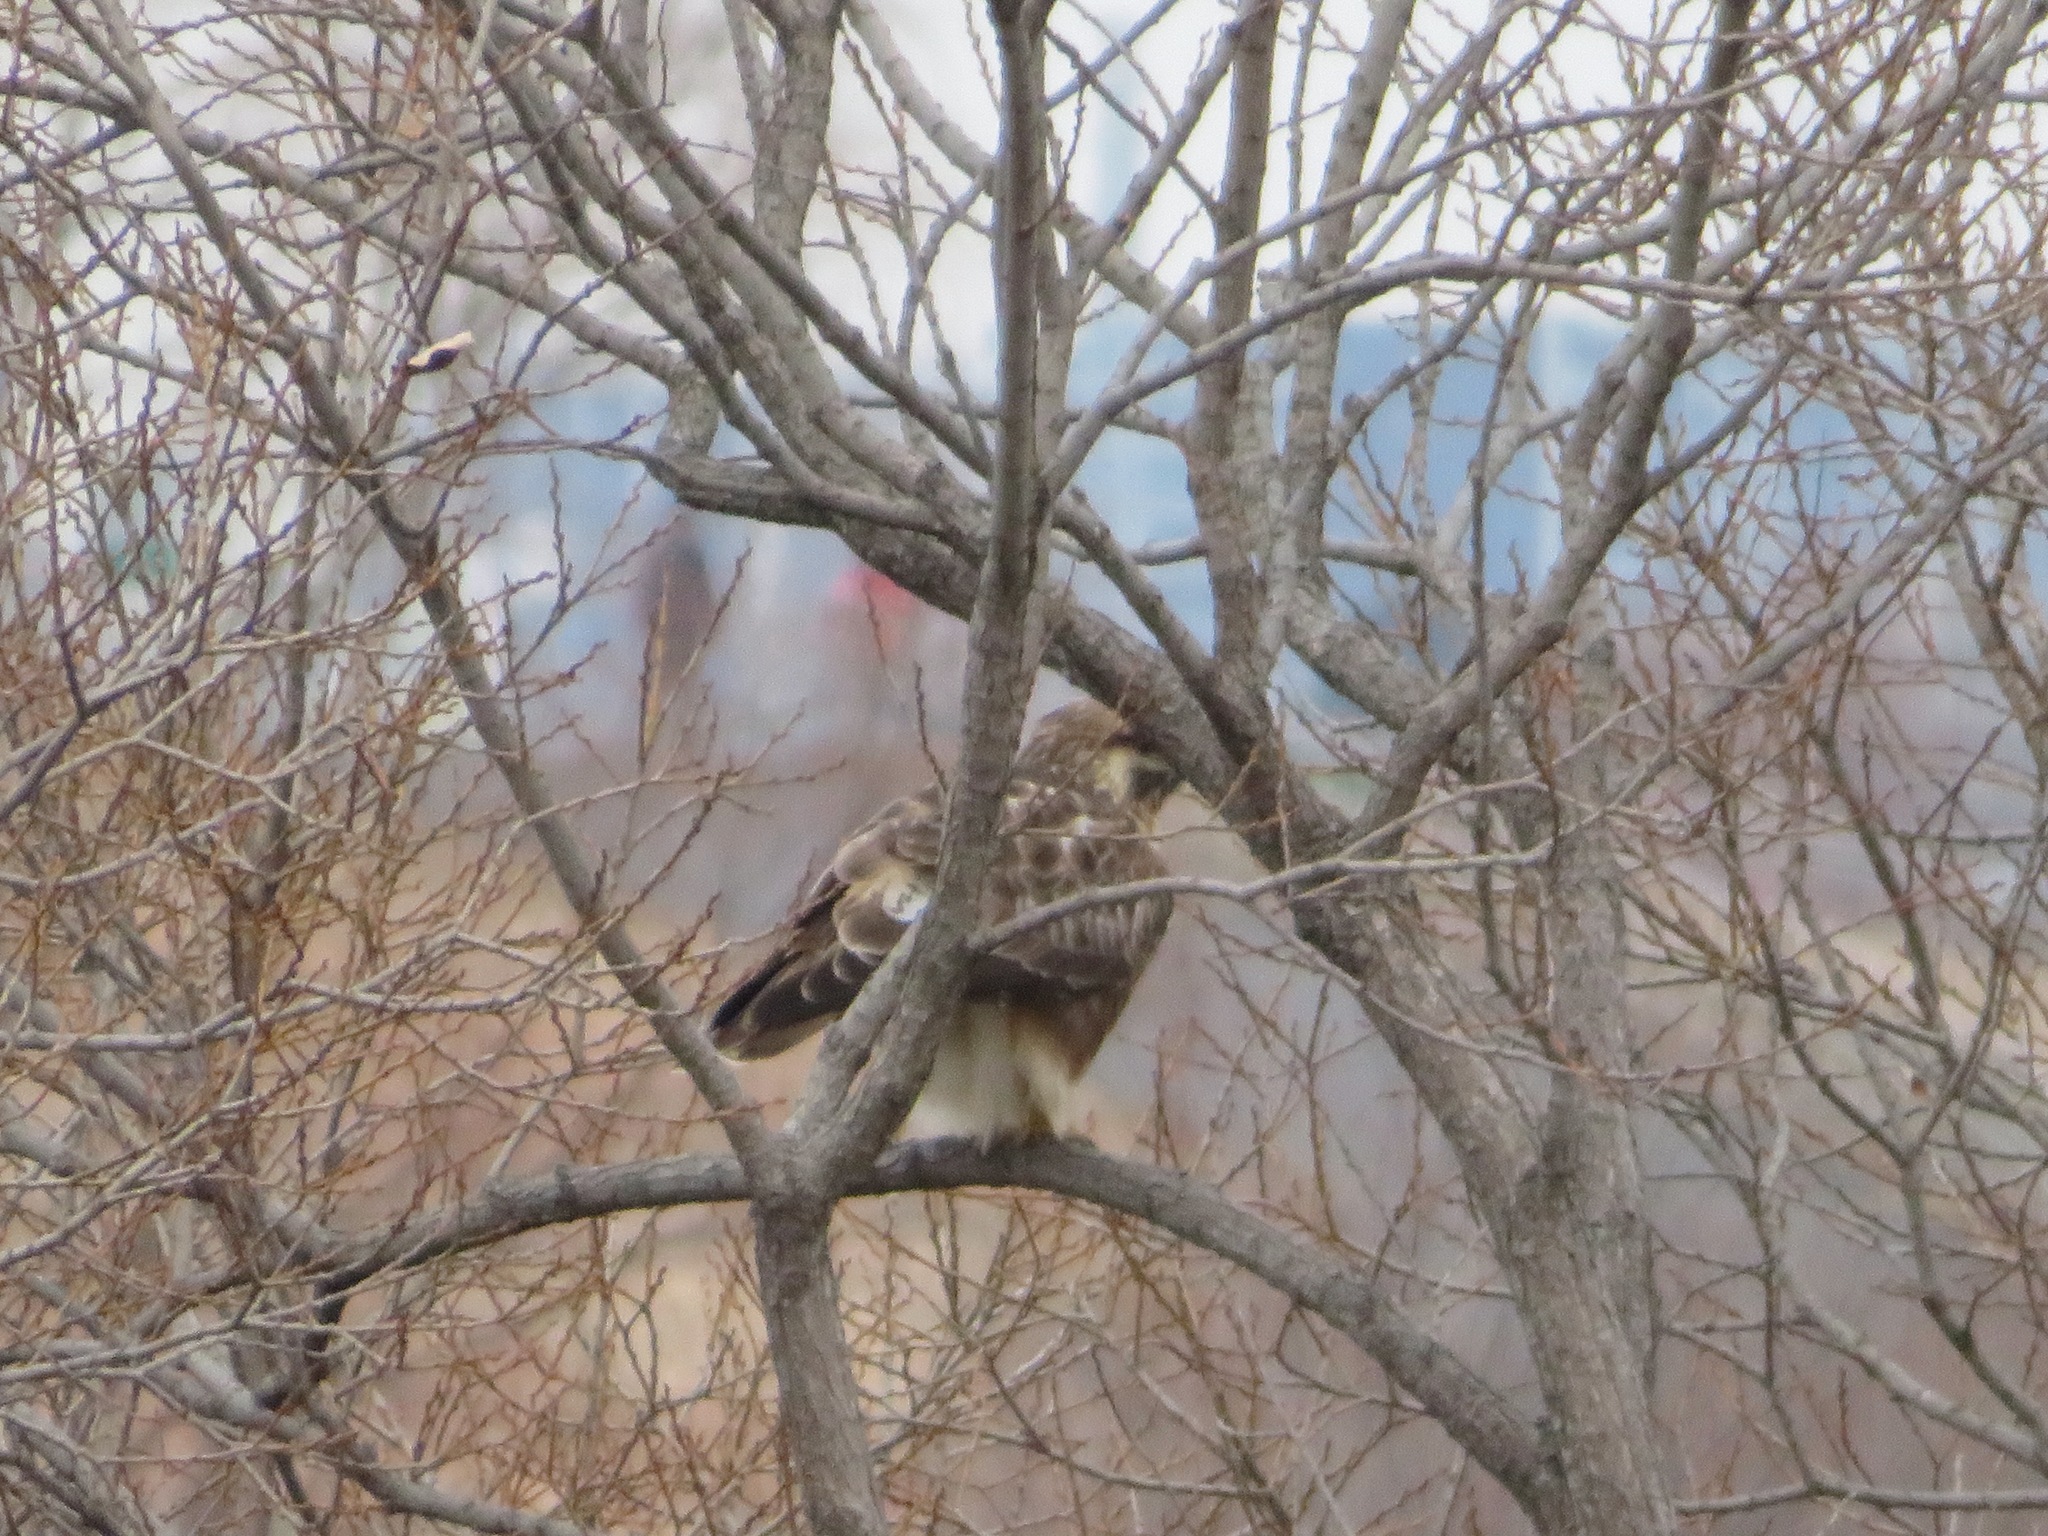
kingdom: Animalia
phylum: Chordata
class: Aves
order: Accipitriformes
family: Accipitridae
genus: Buteo
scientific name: Buteo japonicus
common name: Eastern buzzard
